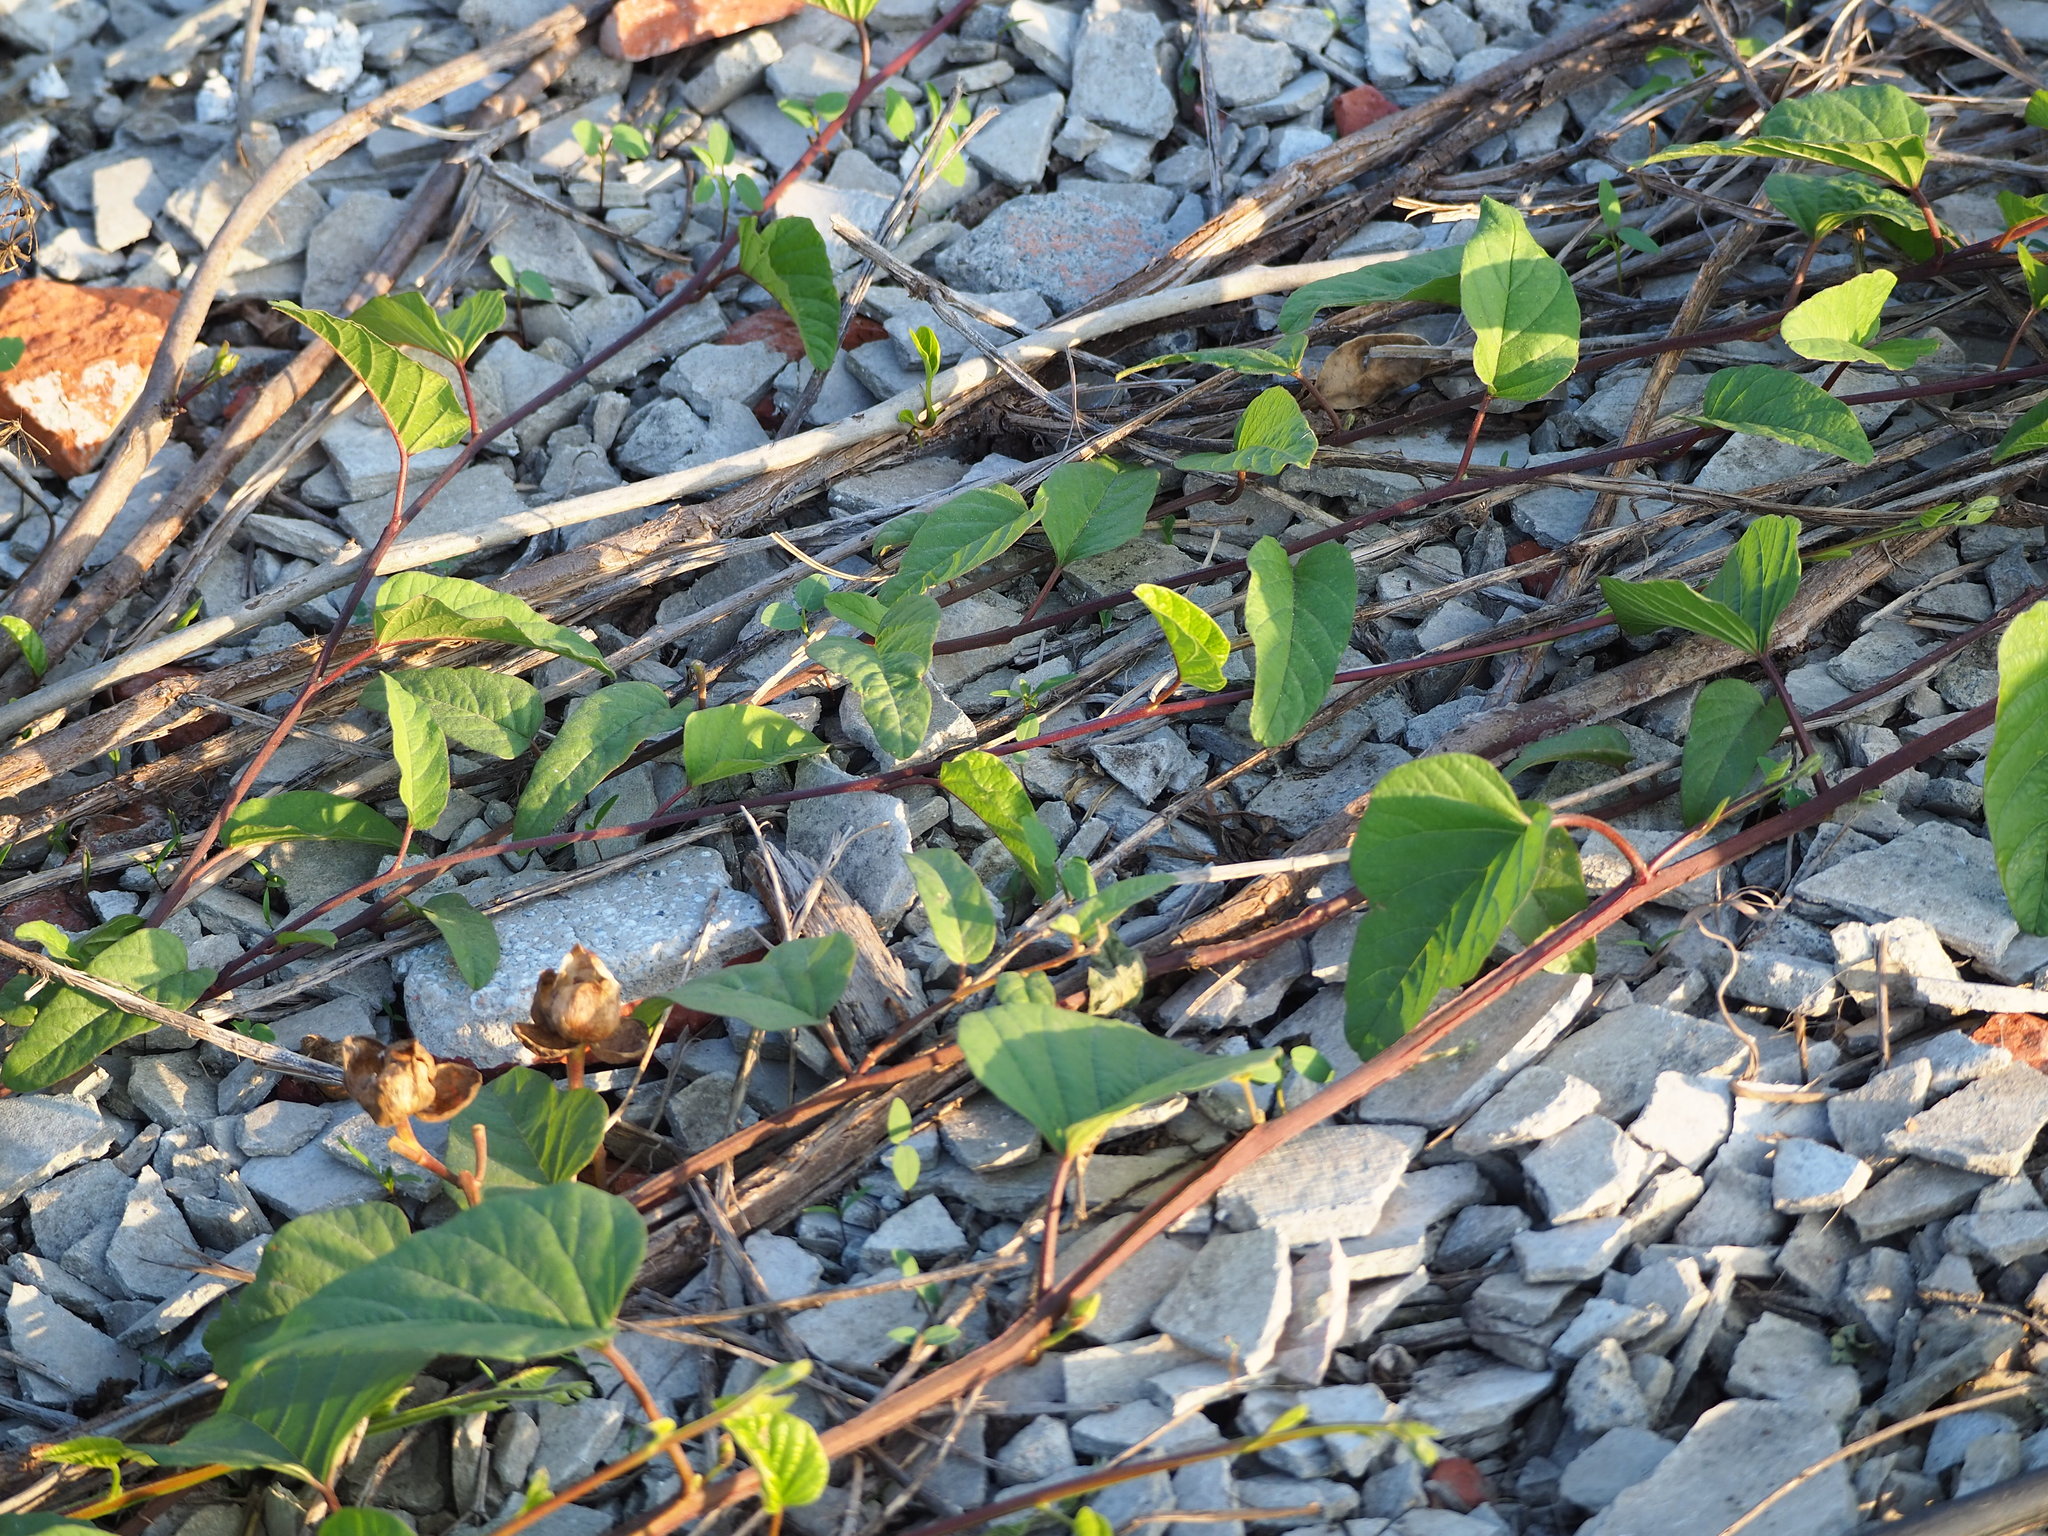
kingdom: Plantae
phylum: Tracheophyta
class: Magnoliopsida
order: Solanales
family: Convolvulaceae
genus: Operculina
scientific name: Operculina turpethum
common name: Transparent wood-rose
